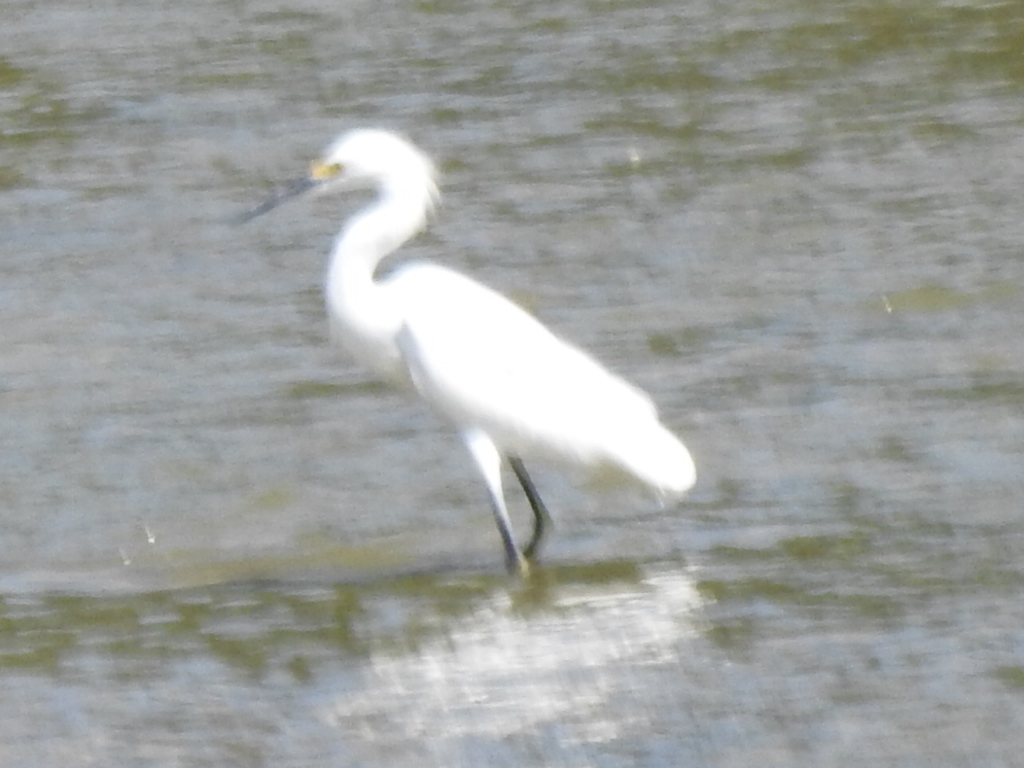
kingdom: Animalia
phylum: Chordata
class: Aves
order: Pelecaniformes
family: Ardeidae
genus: Egretta
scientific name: Egretta thula
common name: Snowy egret
